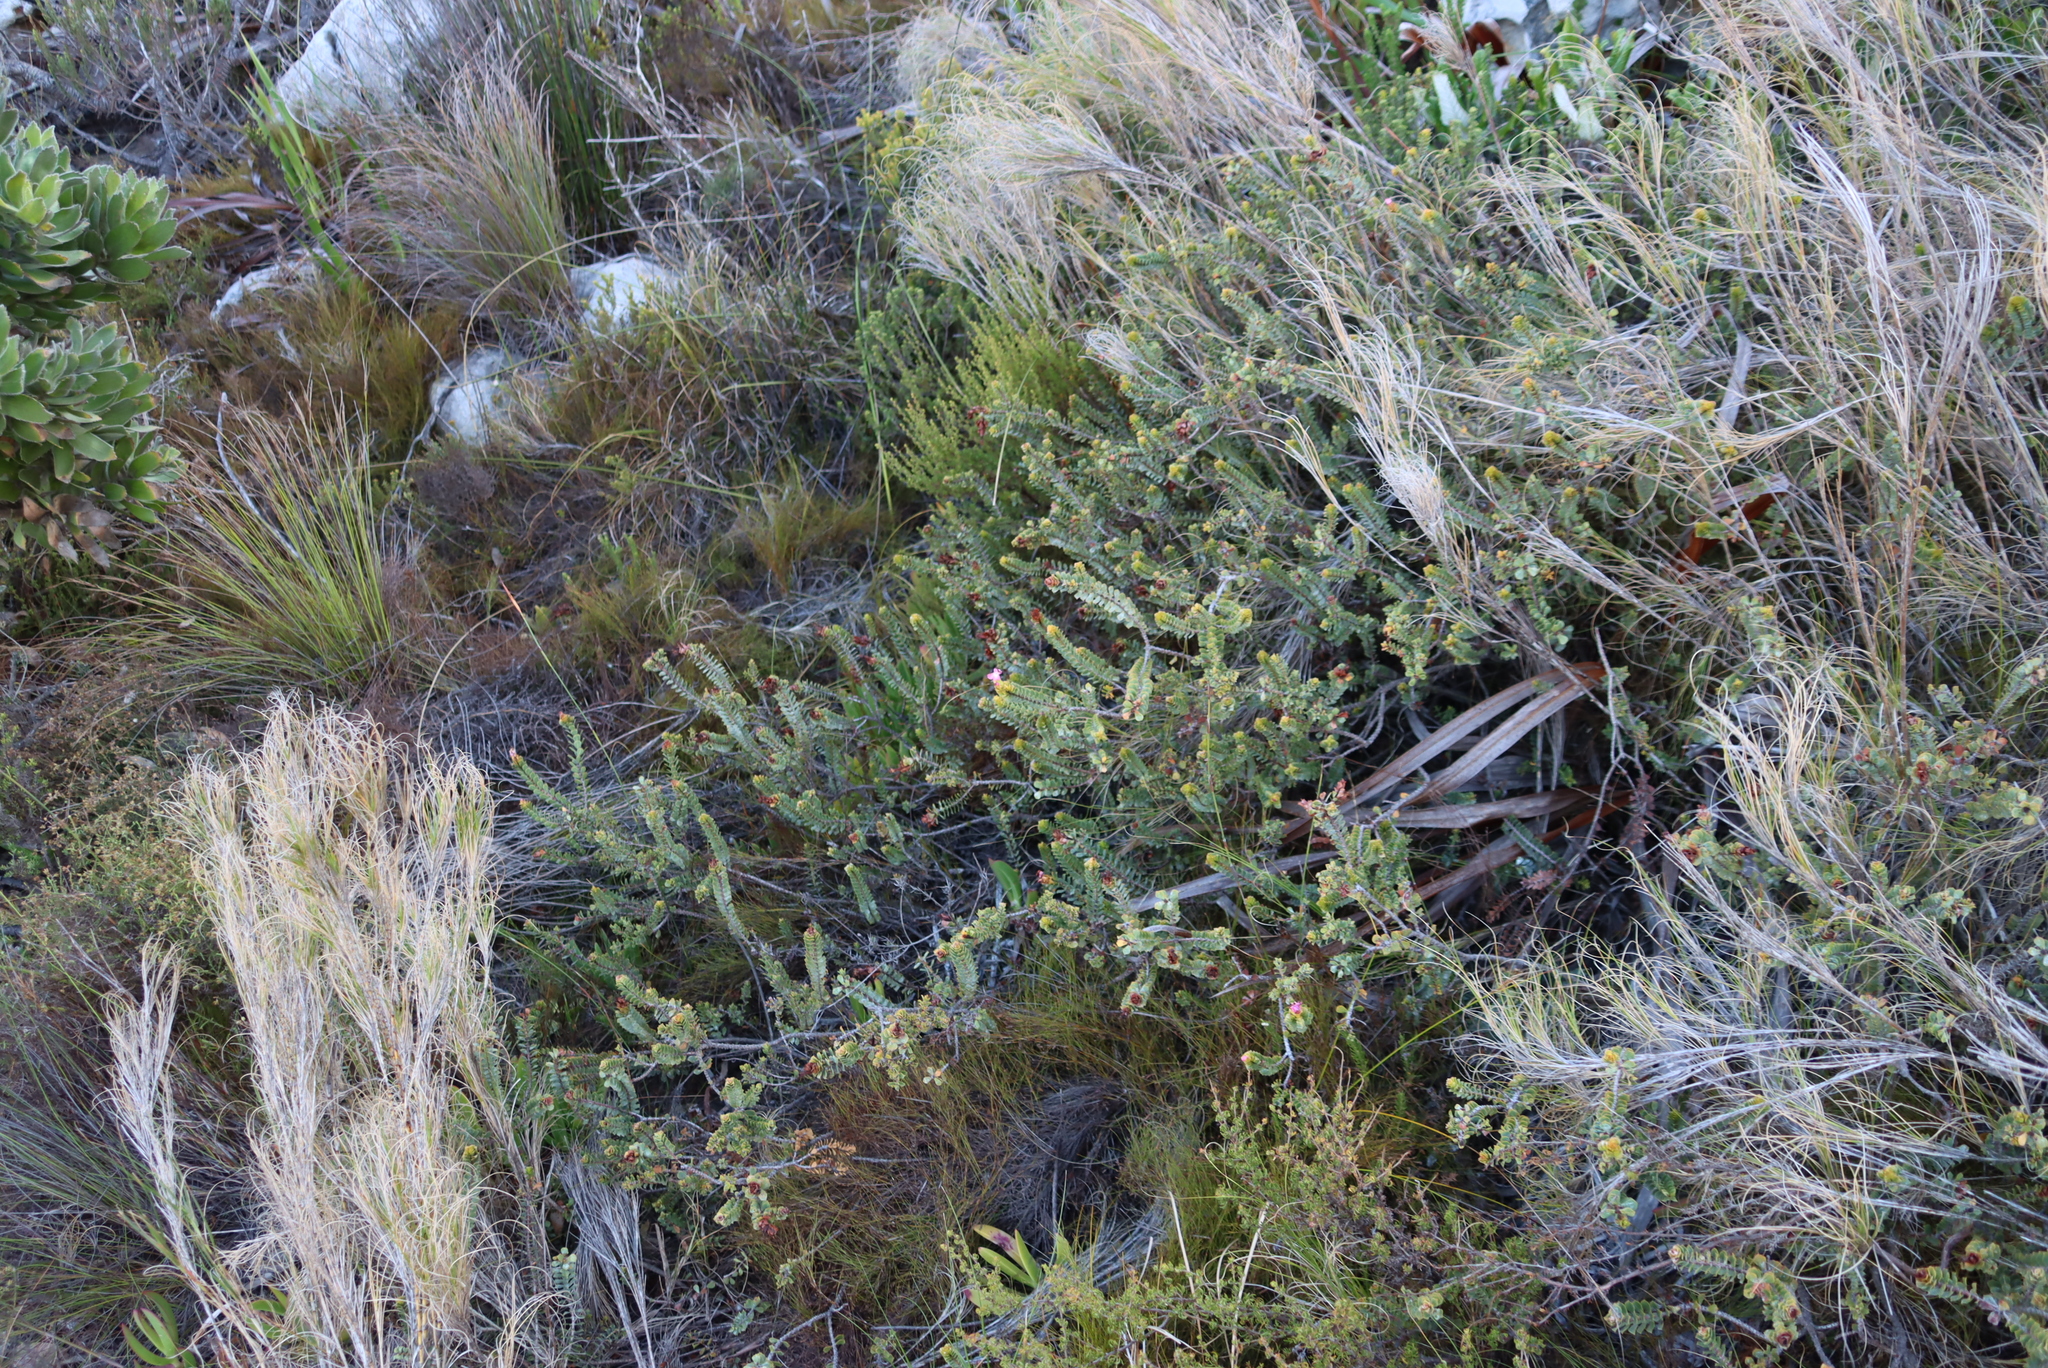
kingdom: Plantae
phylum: Tracheophyta
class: Magnoliopsida
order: Myrtales
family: Penaeaceae
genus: Saltera
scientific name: Saltera sarcocolla
